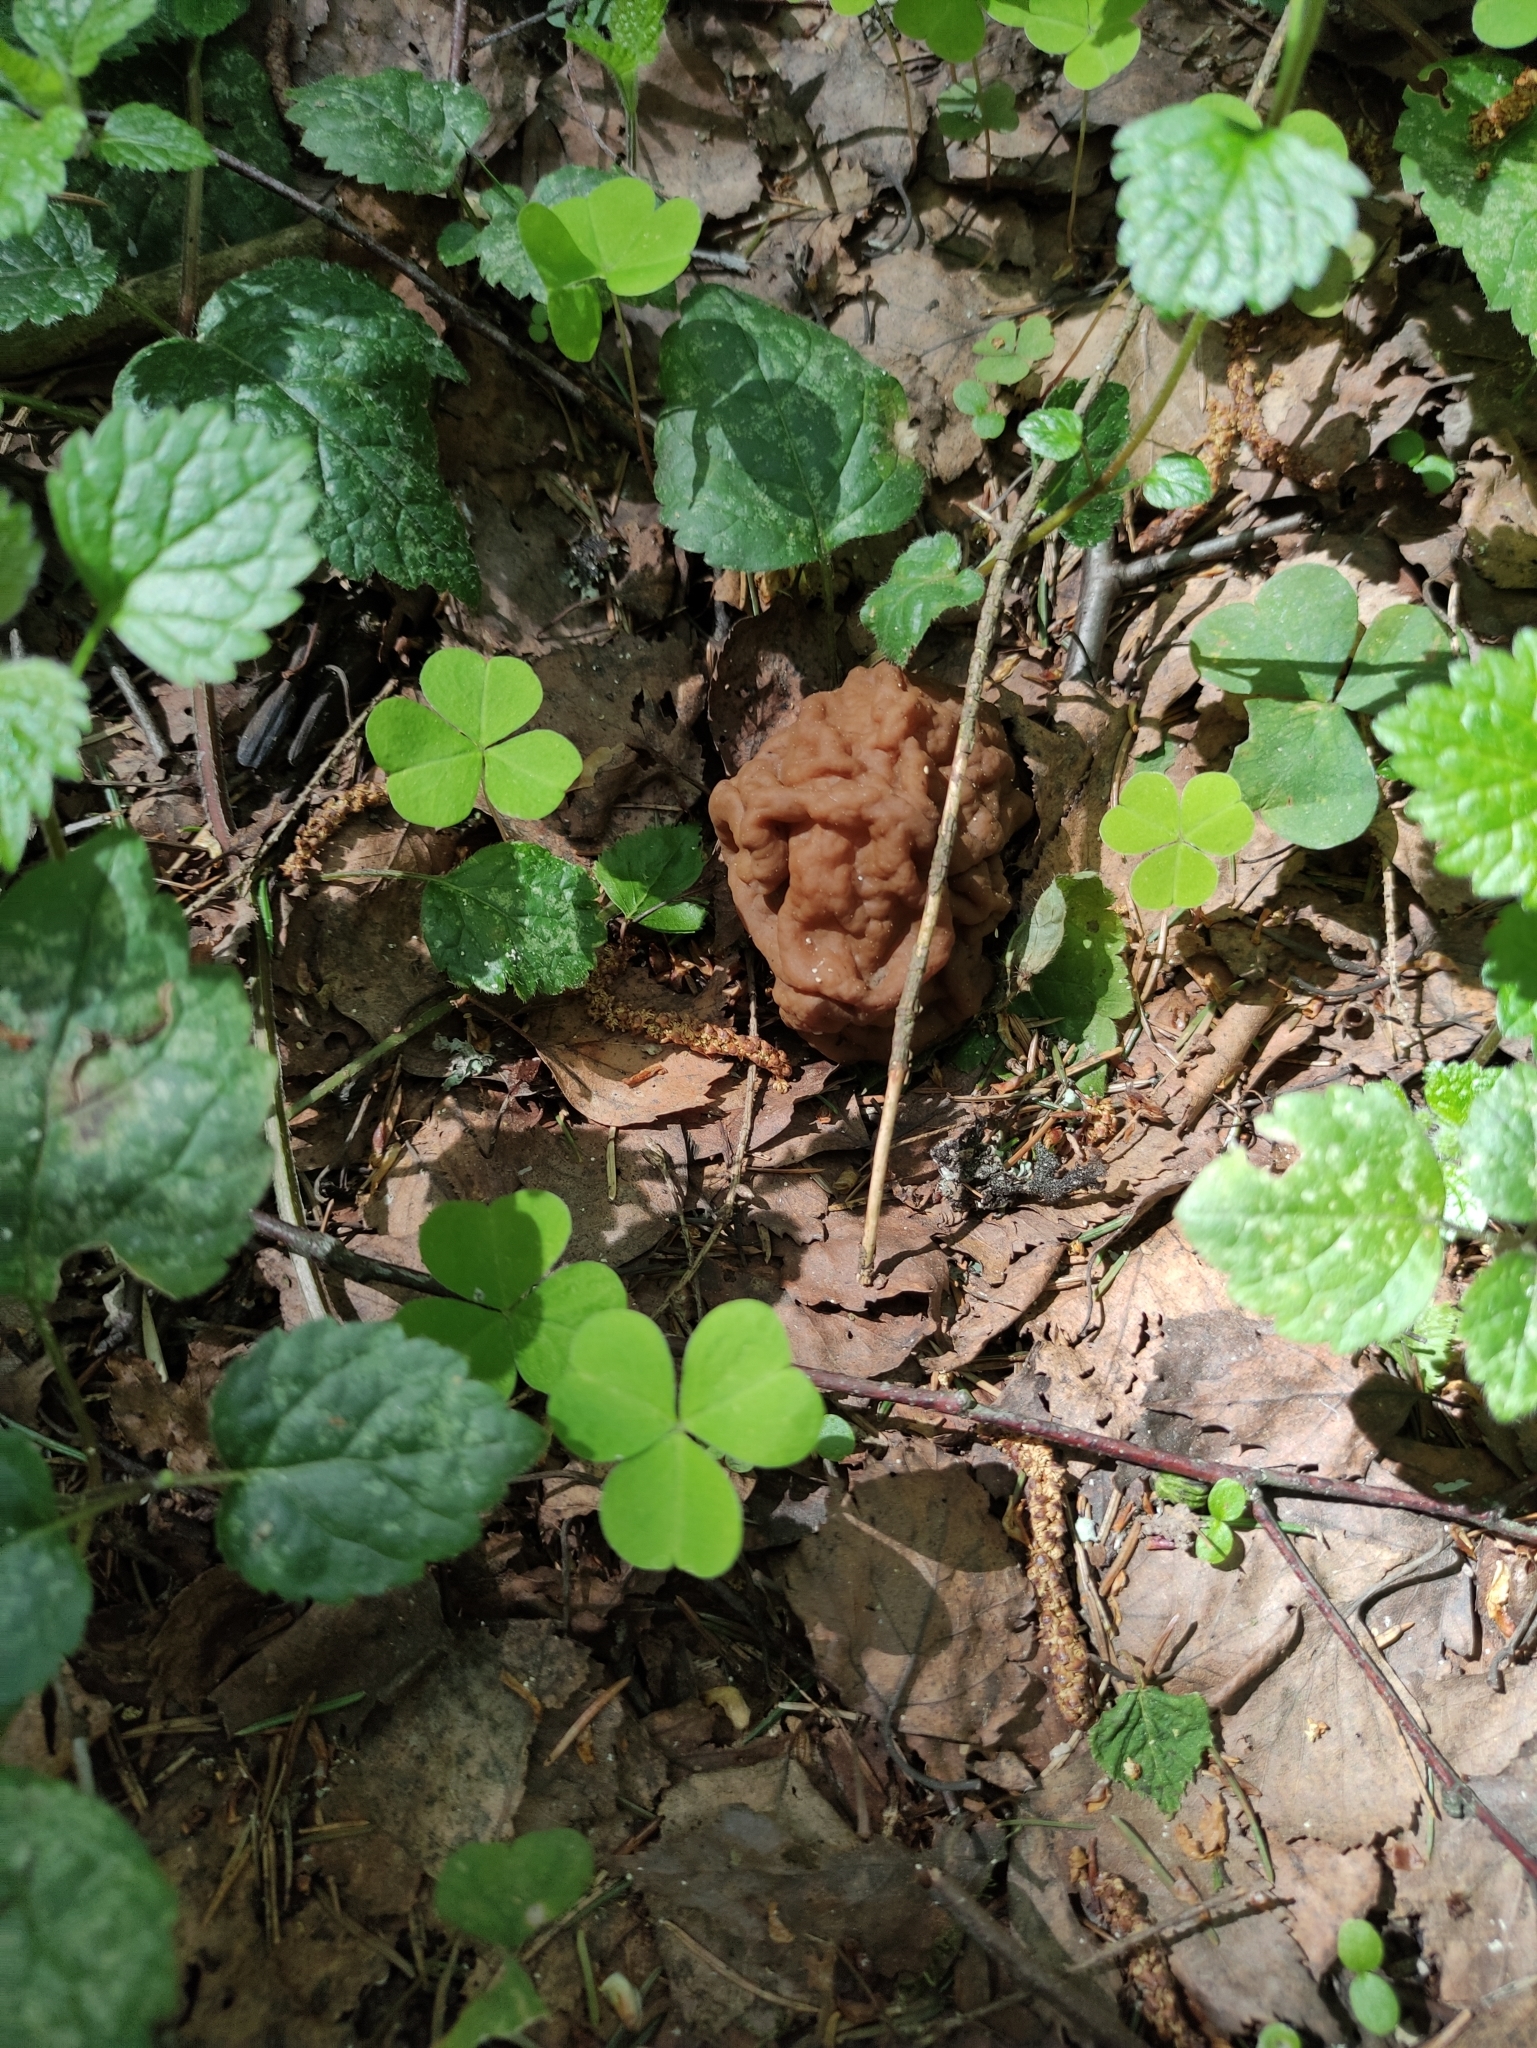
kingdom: Fungi
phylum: Ascomycota
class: Pezizomycetes
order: Pezizales
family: Discinaceae
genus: Gyromitra
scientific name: Gyromitra gigas
